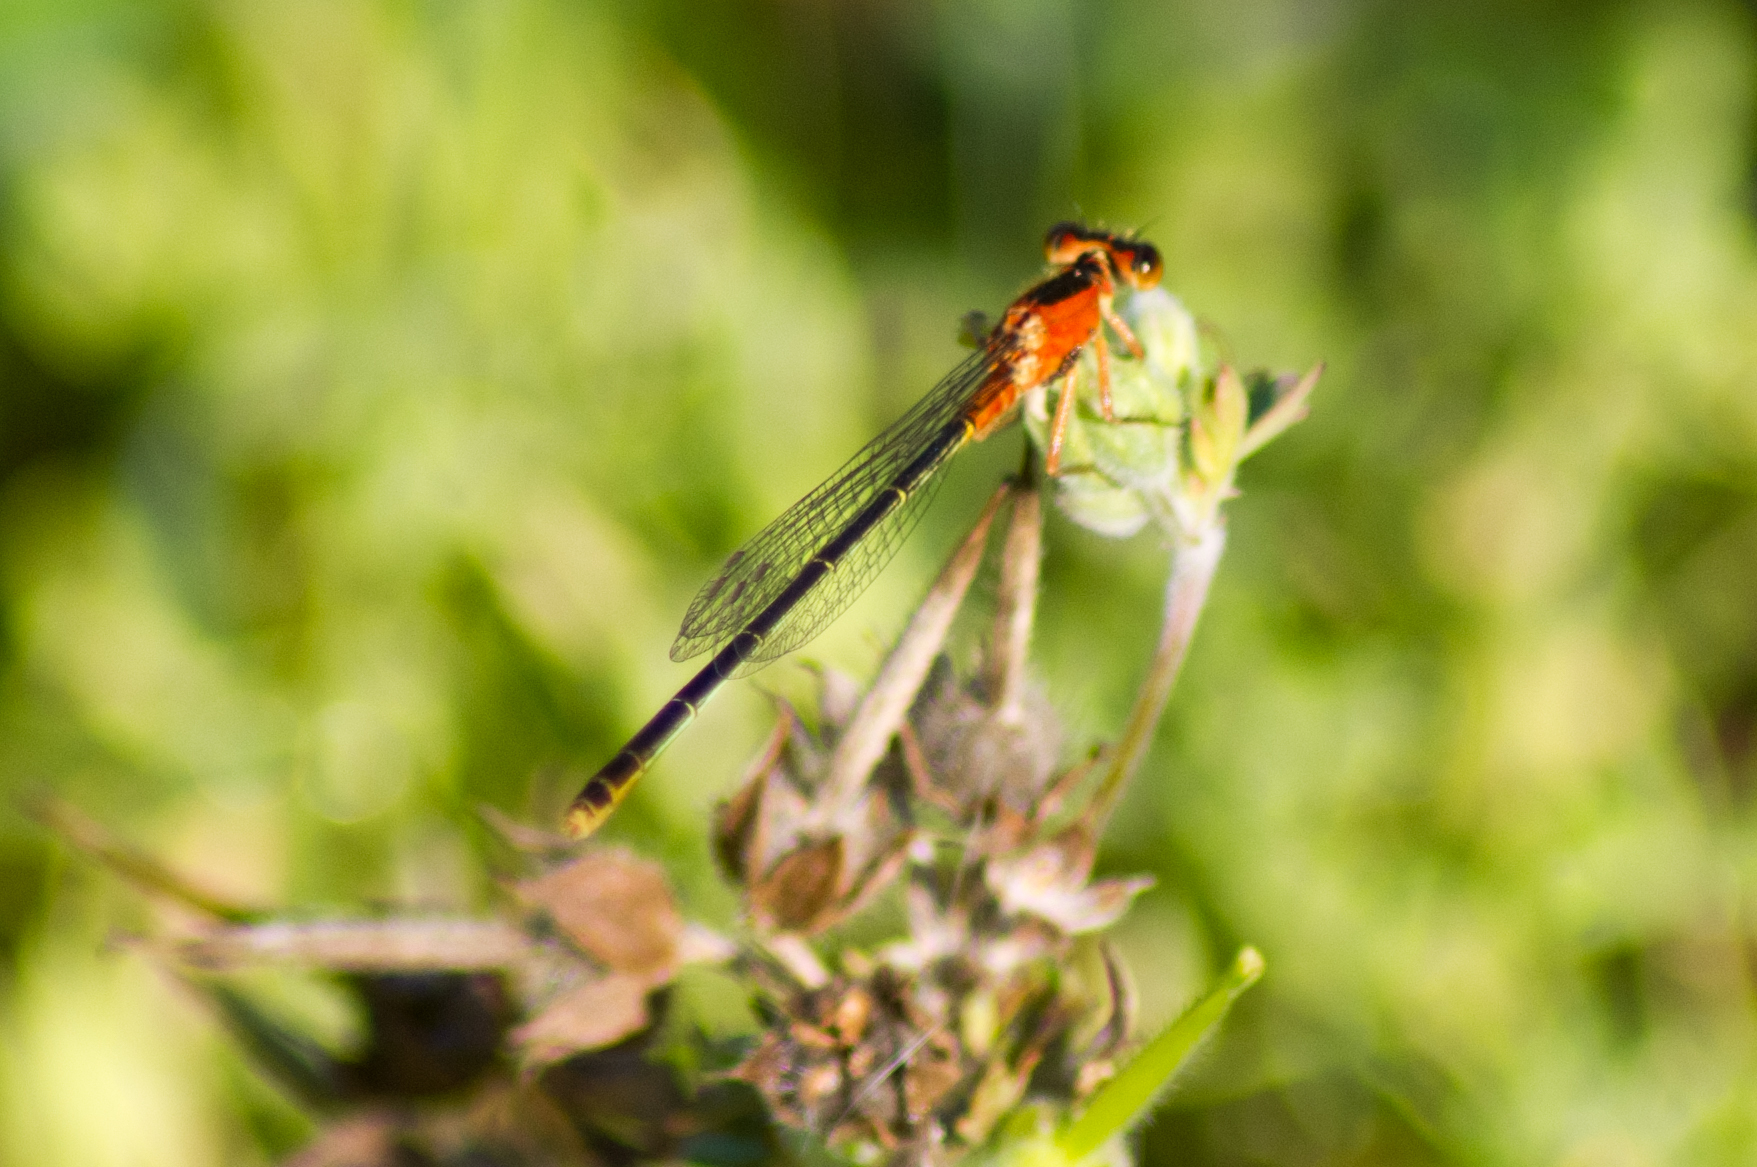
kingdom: Animalia
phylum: Arthropoda
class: Insecta
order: Odonata
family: Coenagrionidae
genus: Ischnura
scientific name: Ischnura ramburii
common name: Rambur's forktail
